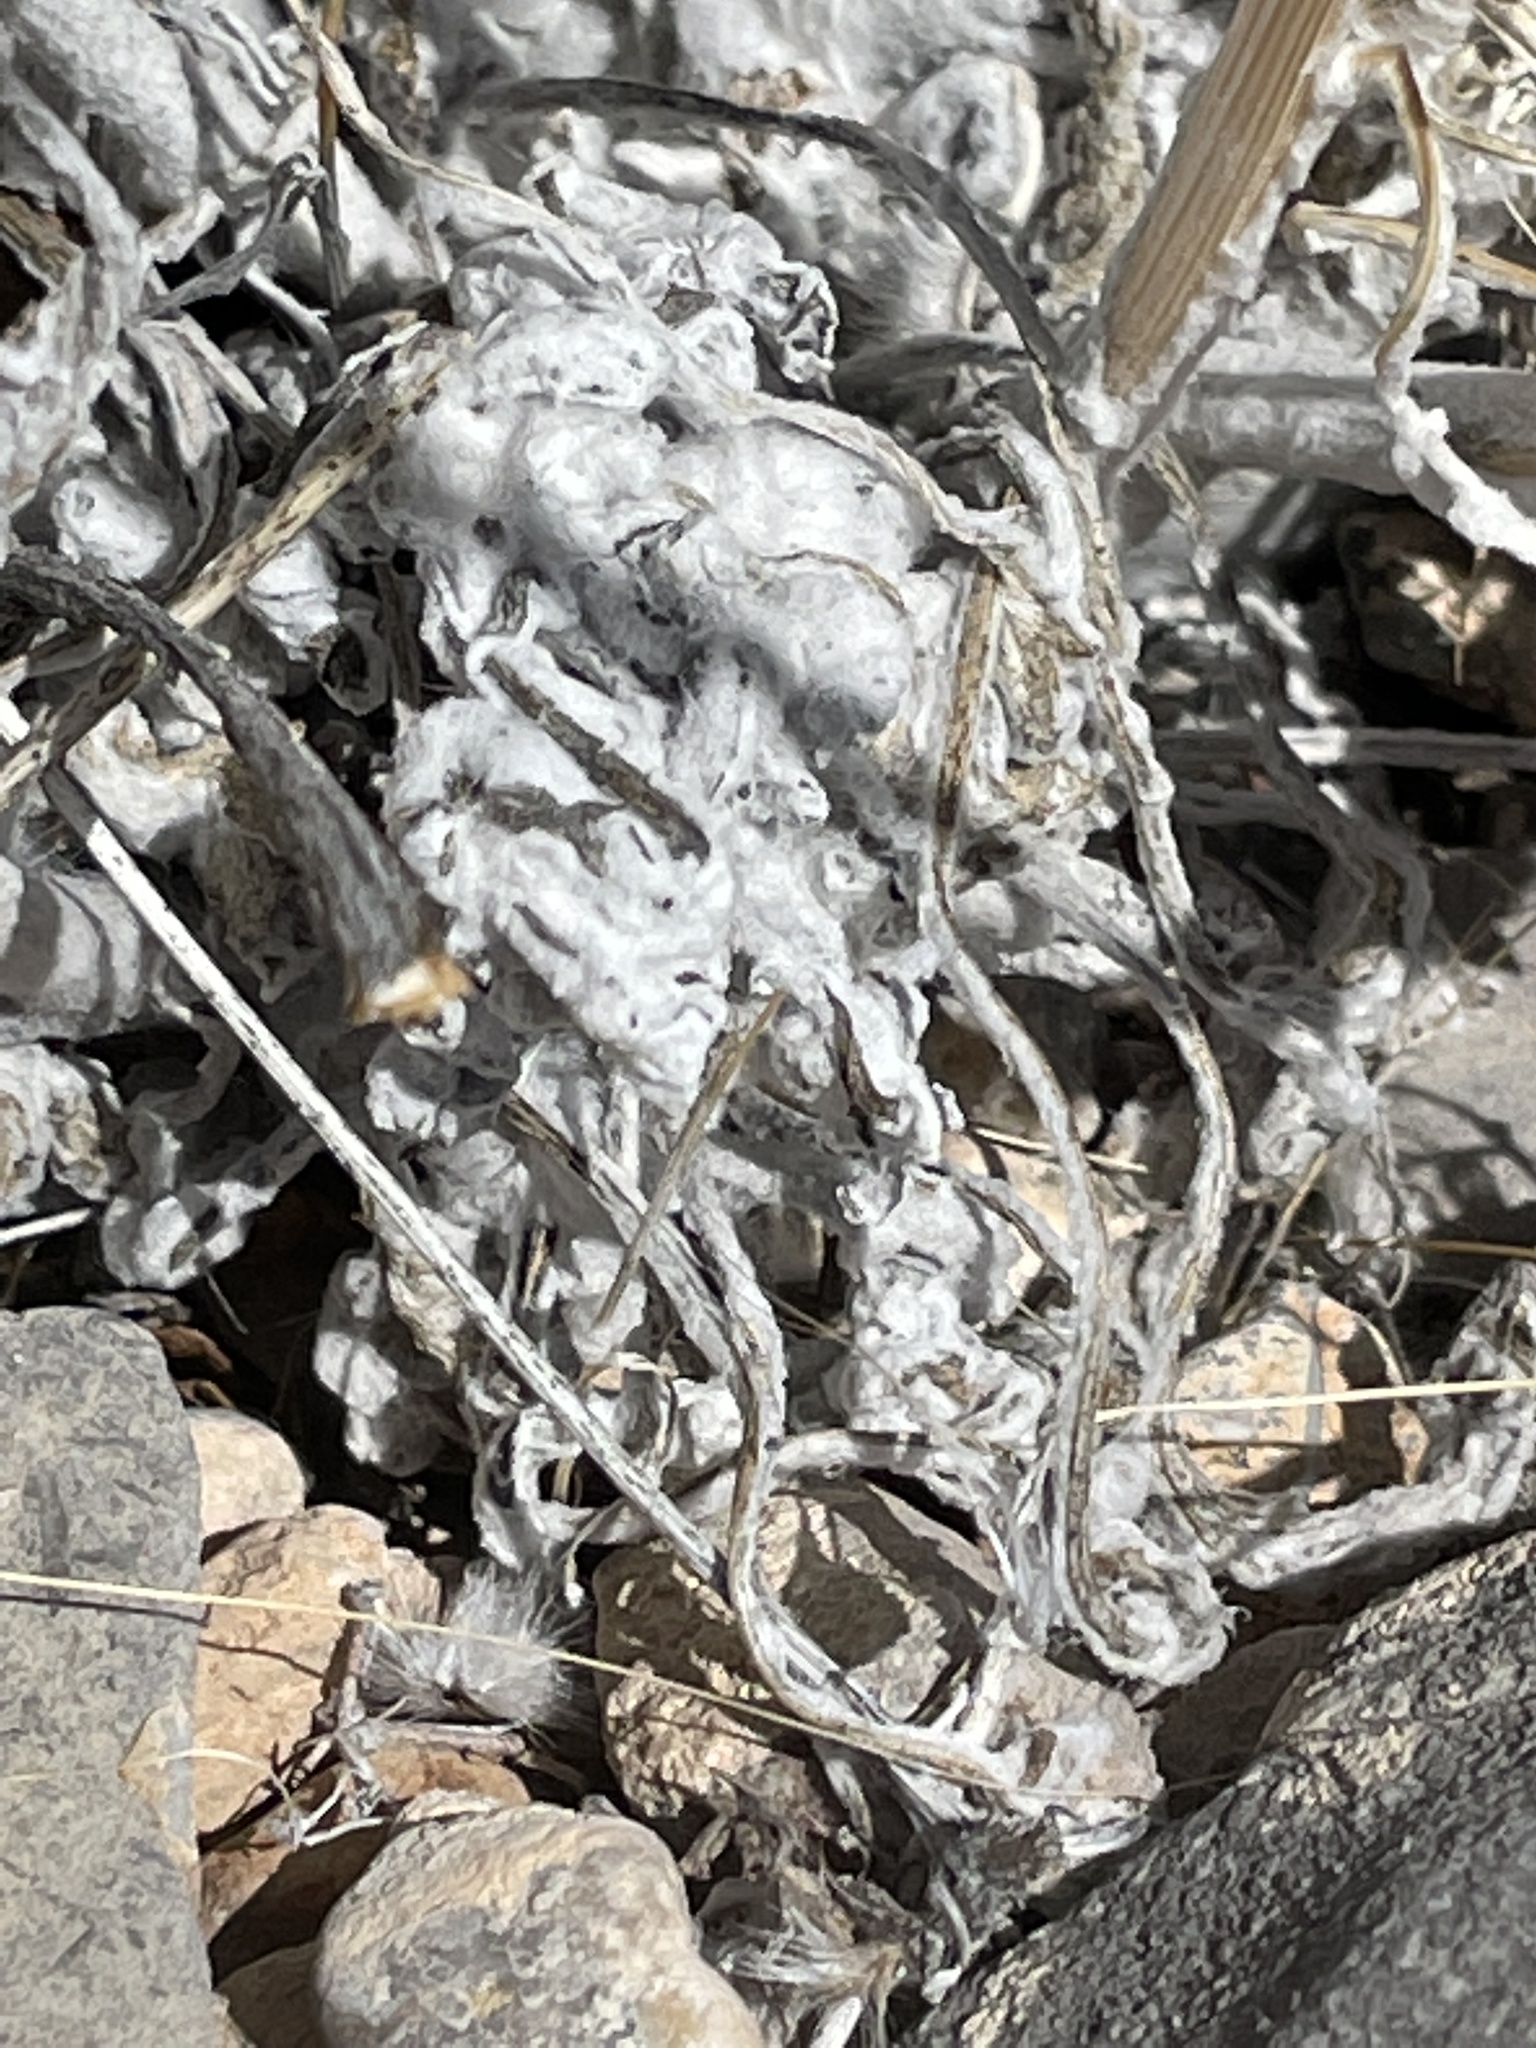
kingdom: Plantae
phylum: Tracheophyta
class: Magnoliopsida
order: Asterales
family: Asteraceae
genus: Baileya
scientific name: Baileya multiradiata
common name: Desert-marigold
